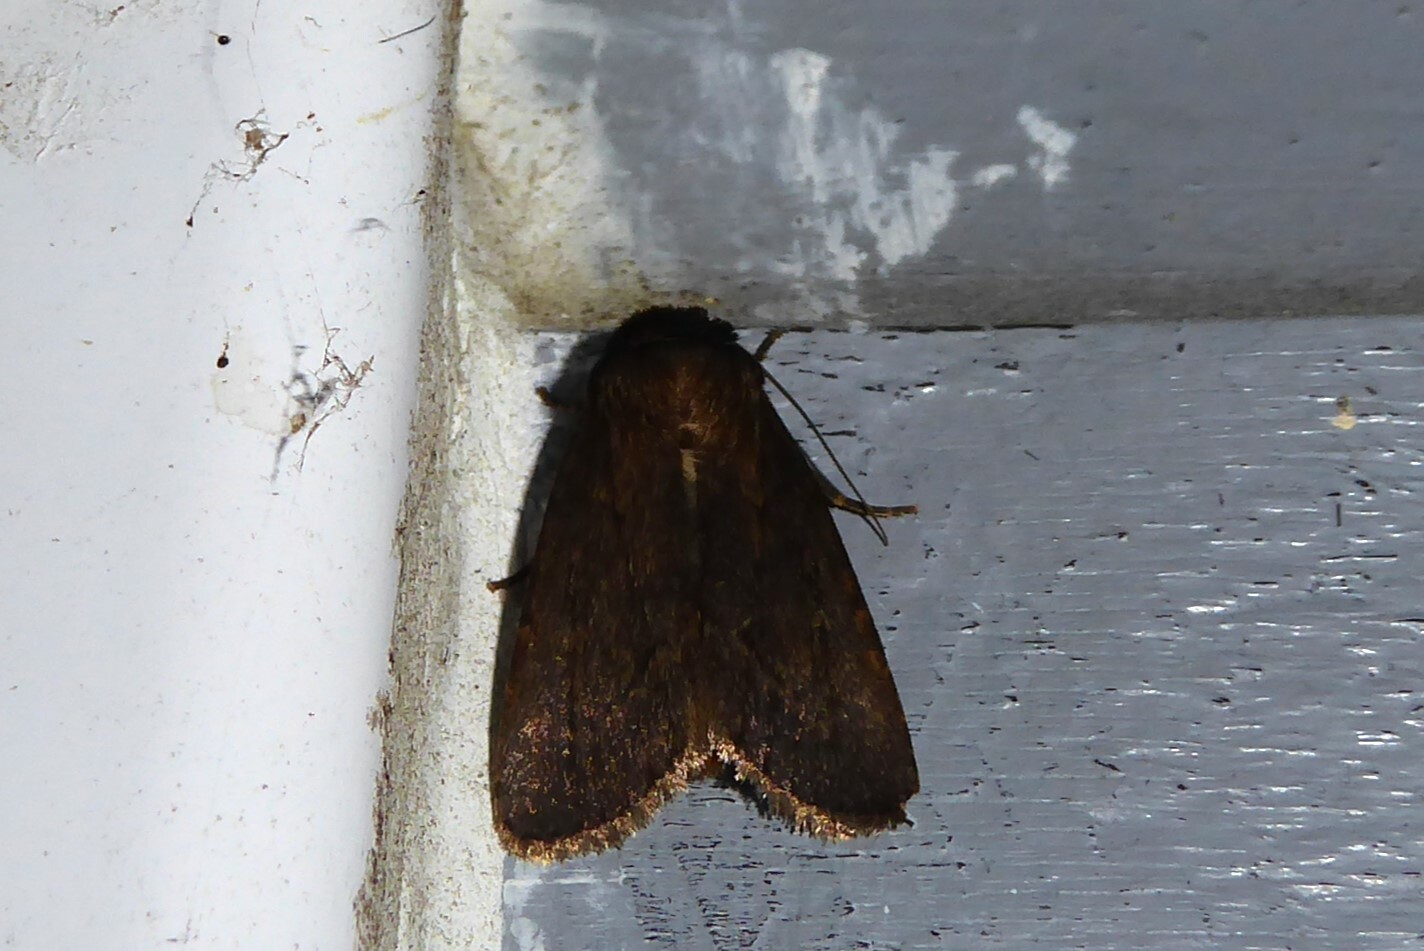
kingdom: Animalia
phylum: Arthropoda
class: Insecta
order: Lepidoptera
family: Noctuidae
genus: Bityla
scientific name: Bityla defigurata
